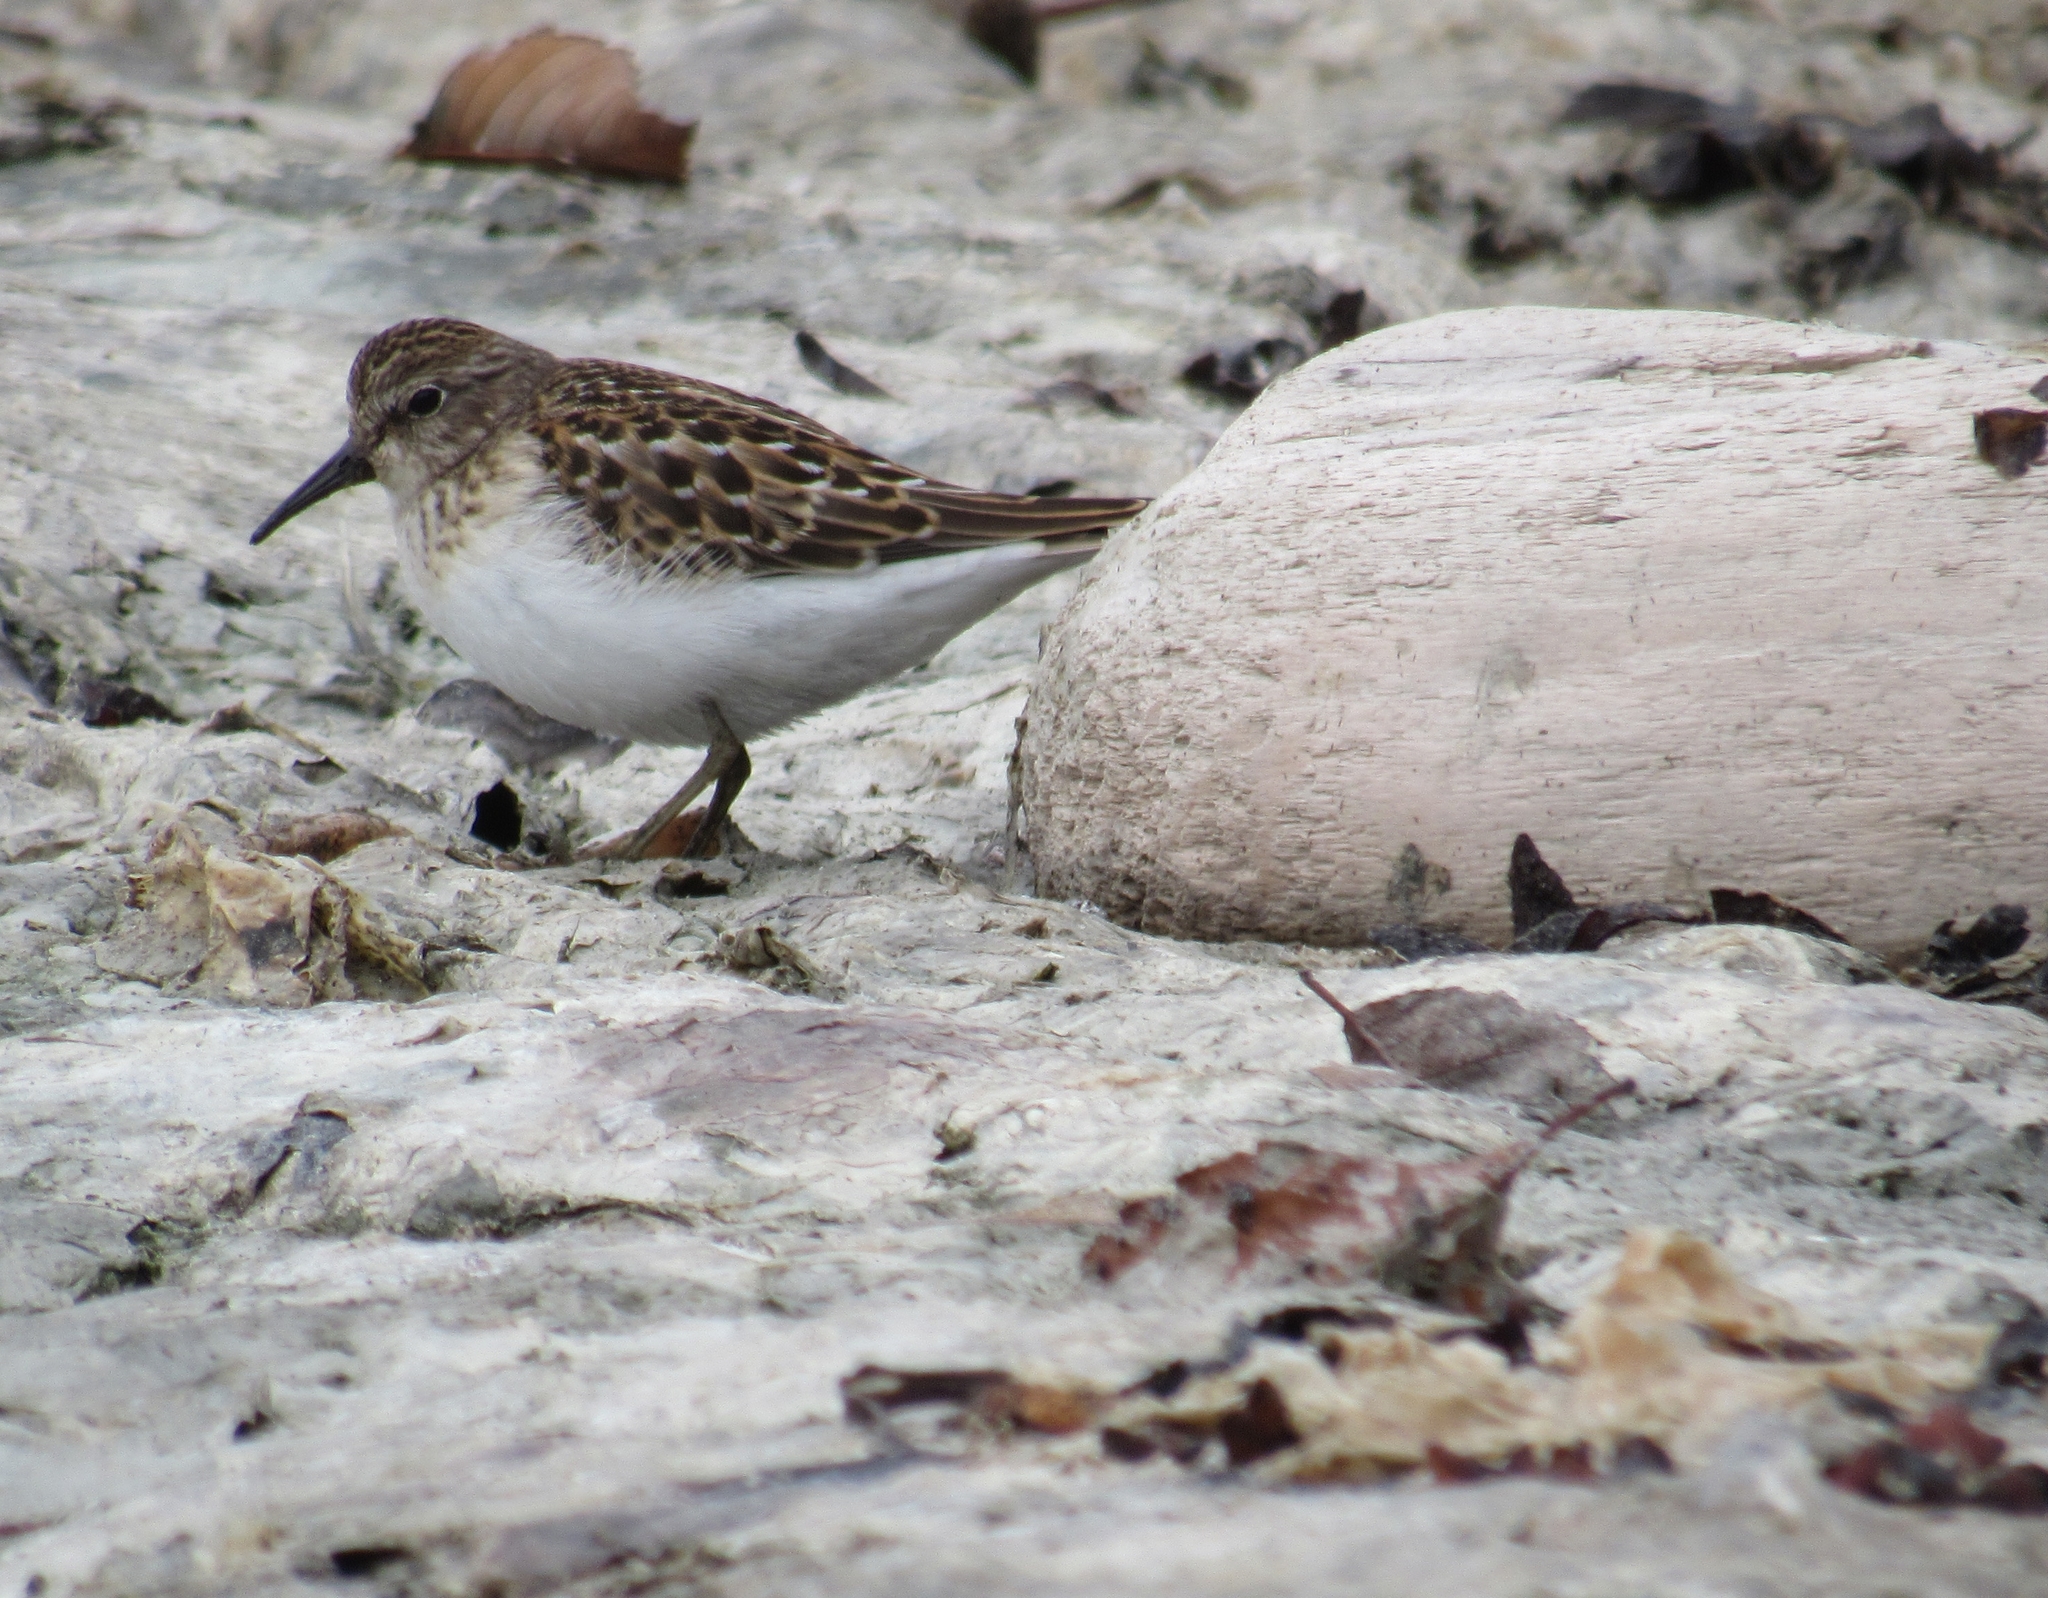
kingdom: Animalia
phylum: Chordata
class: Aves
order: Charadriiformes
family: Scolopacidae
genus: Calidris
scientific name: Calidris minutilla
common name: Least sandpiper
